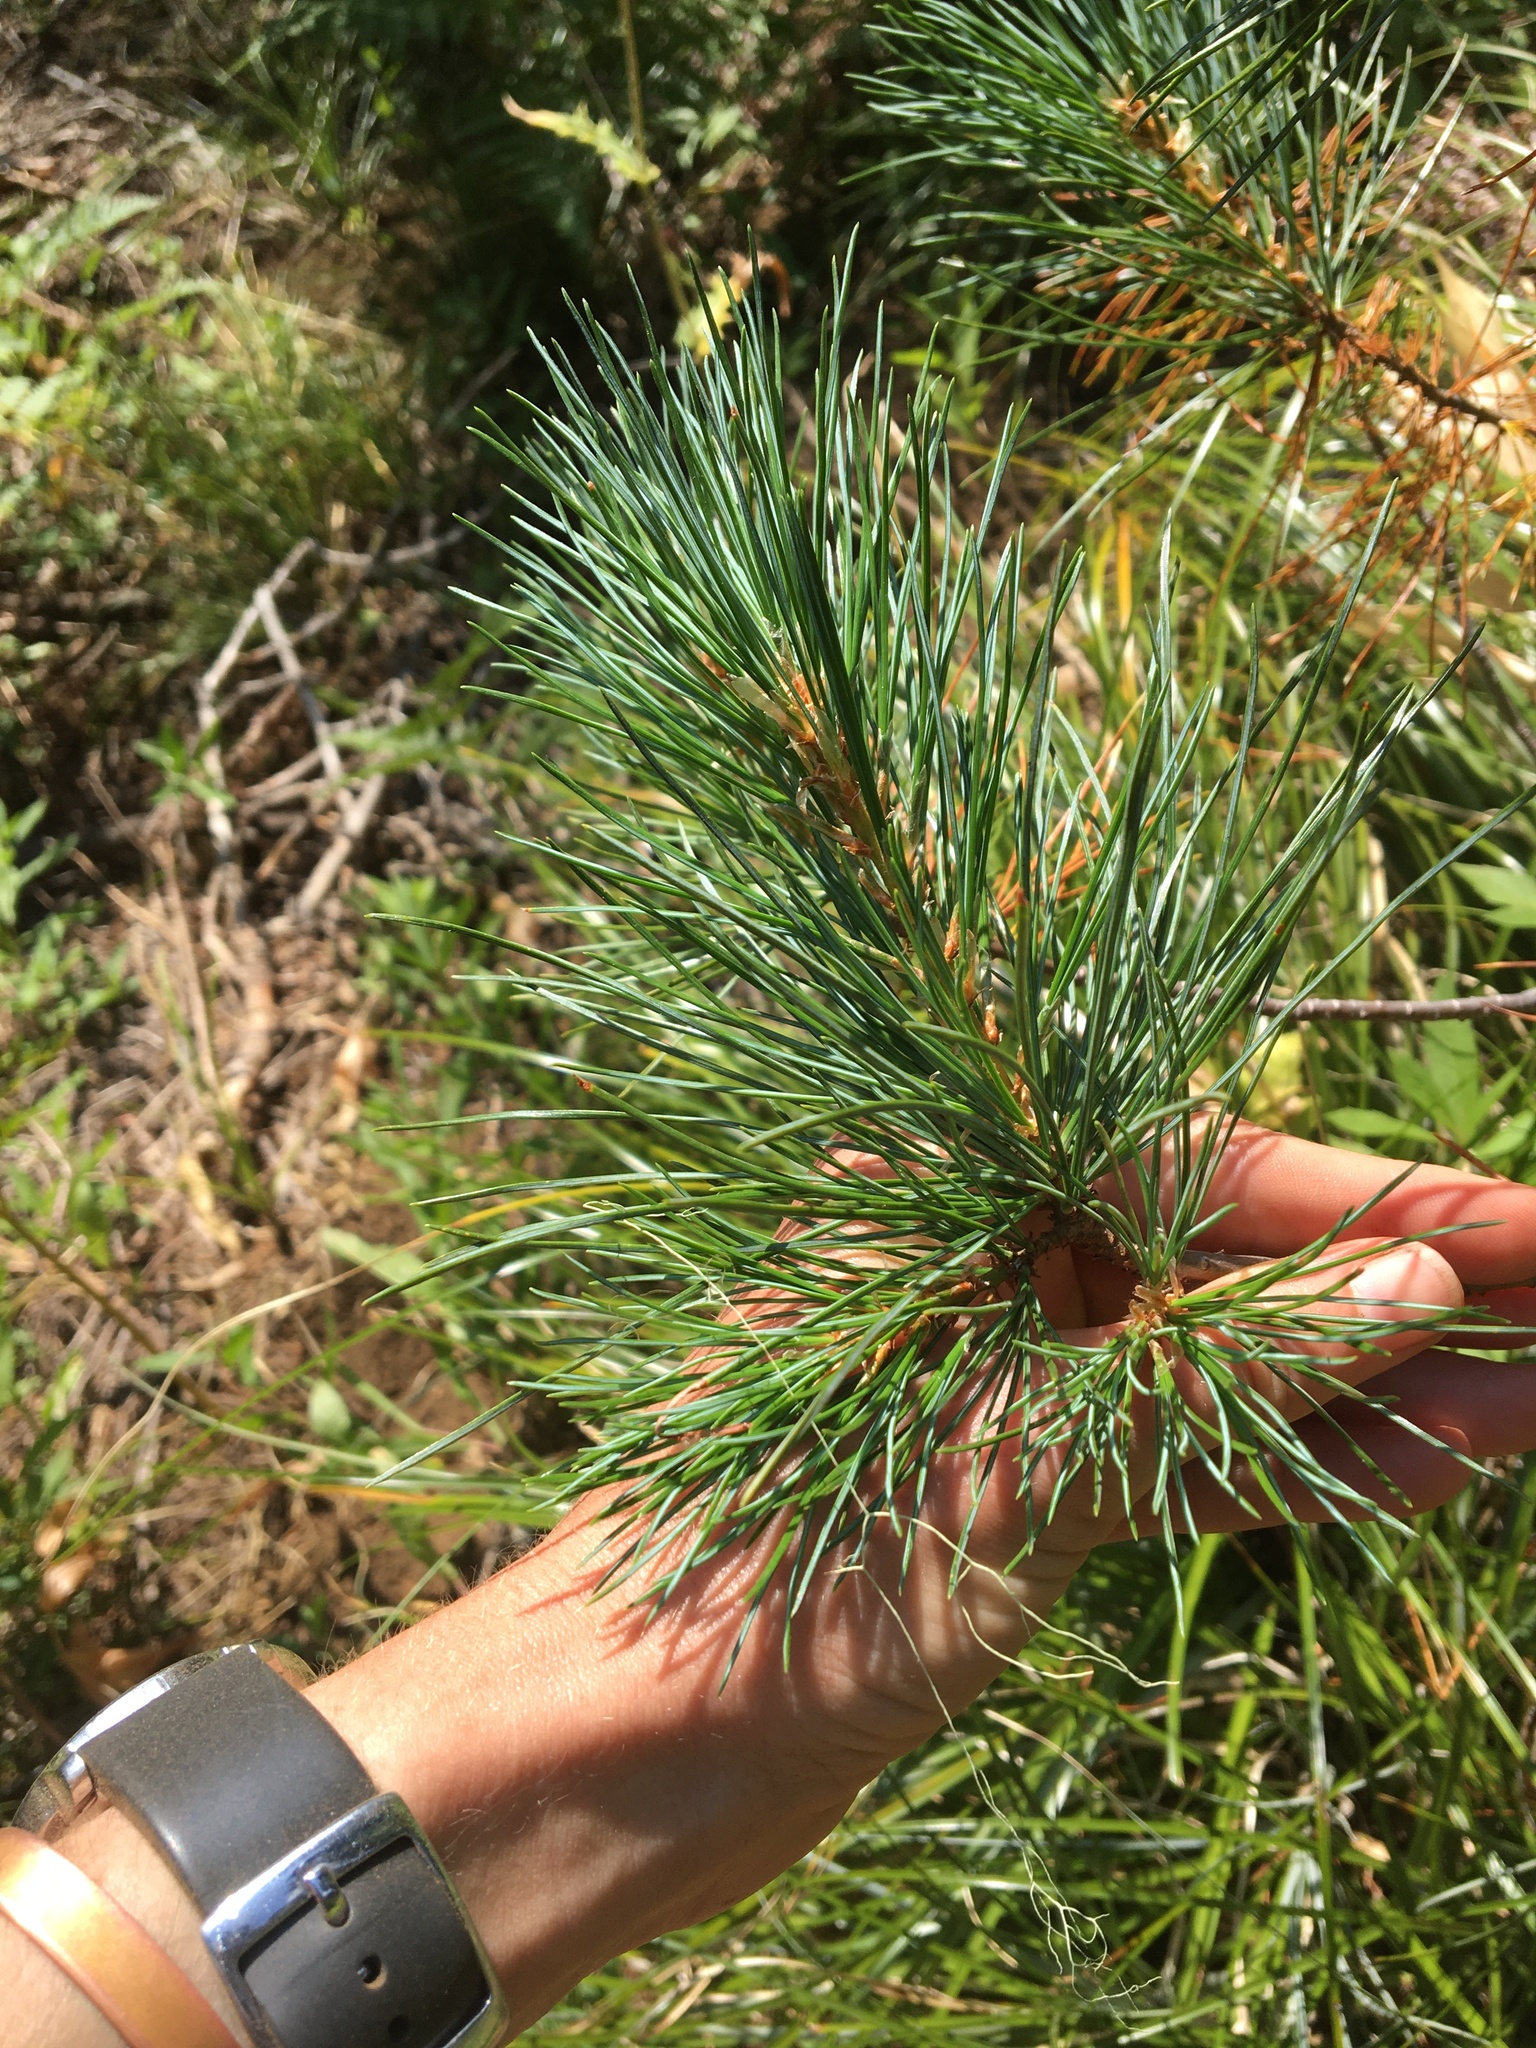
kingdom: Plantae
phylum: Tracheophyta
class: Pinopsida
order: Pinales
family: Pinaceae
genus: Pinus
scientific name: Pinus monticola
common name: Western white pine
